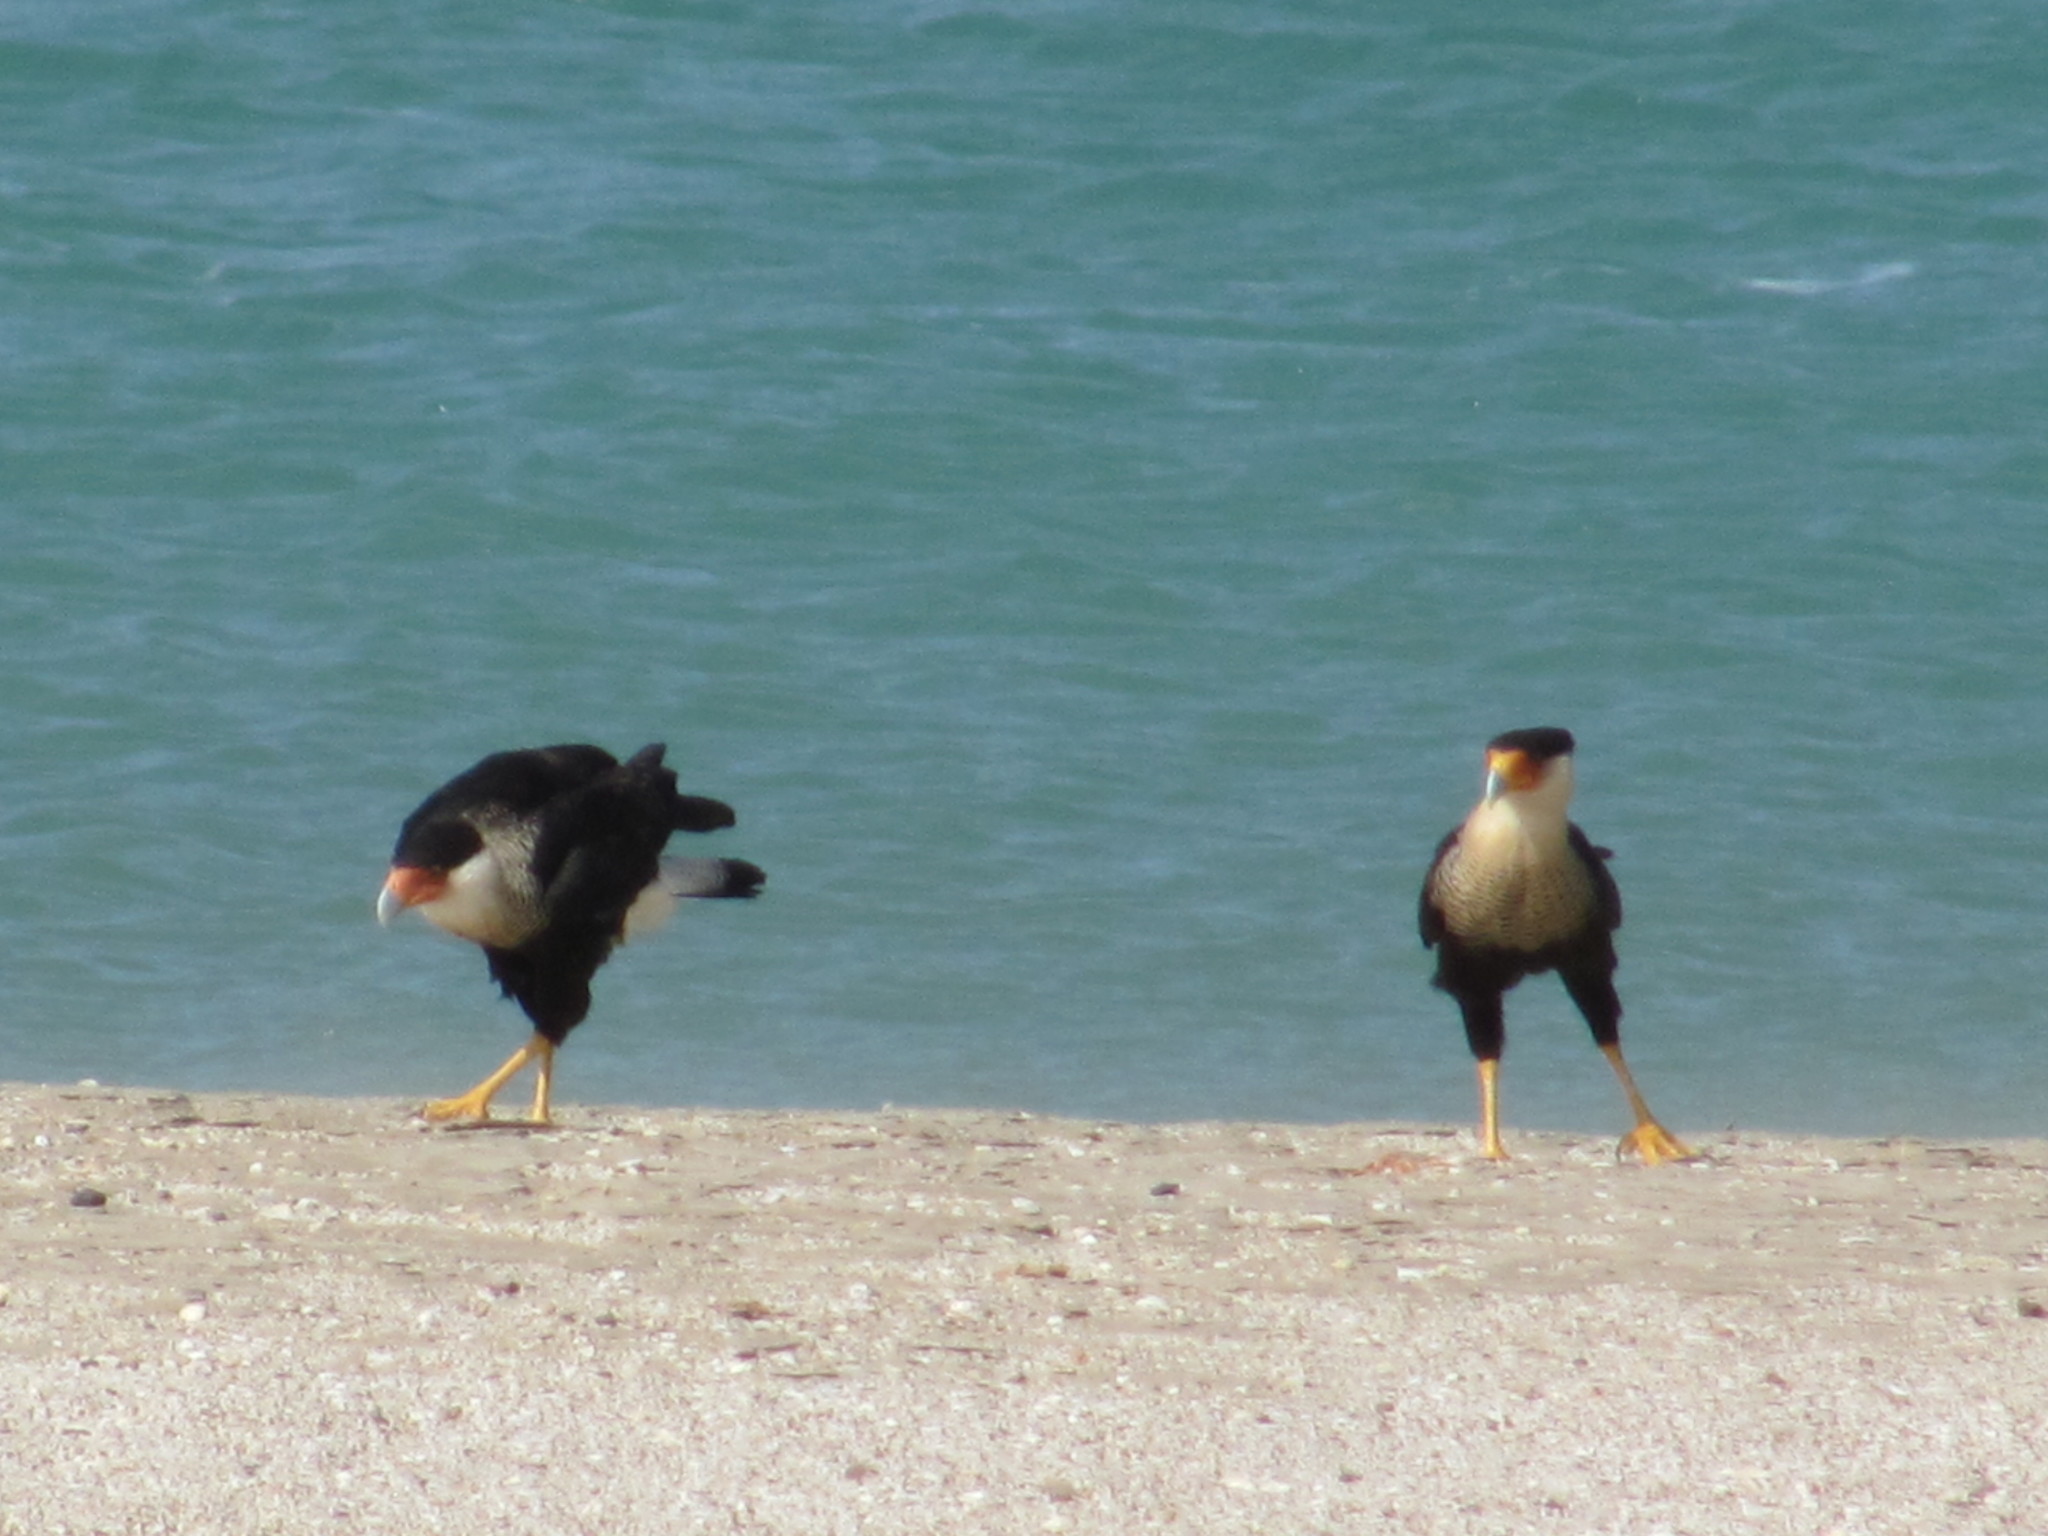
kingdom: Animalia
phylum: Chordata
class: Aves
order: Falconiformes
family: Falconidae
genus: Caracara
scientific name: Caracara plancus
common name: Southern caracara
